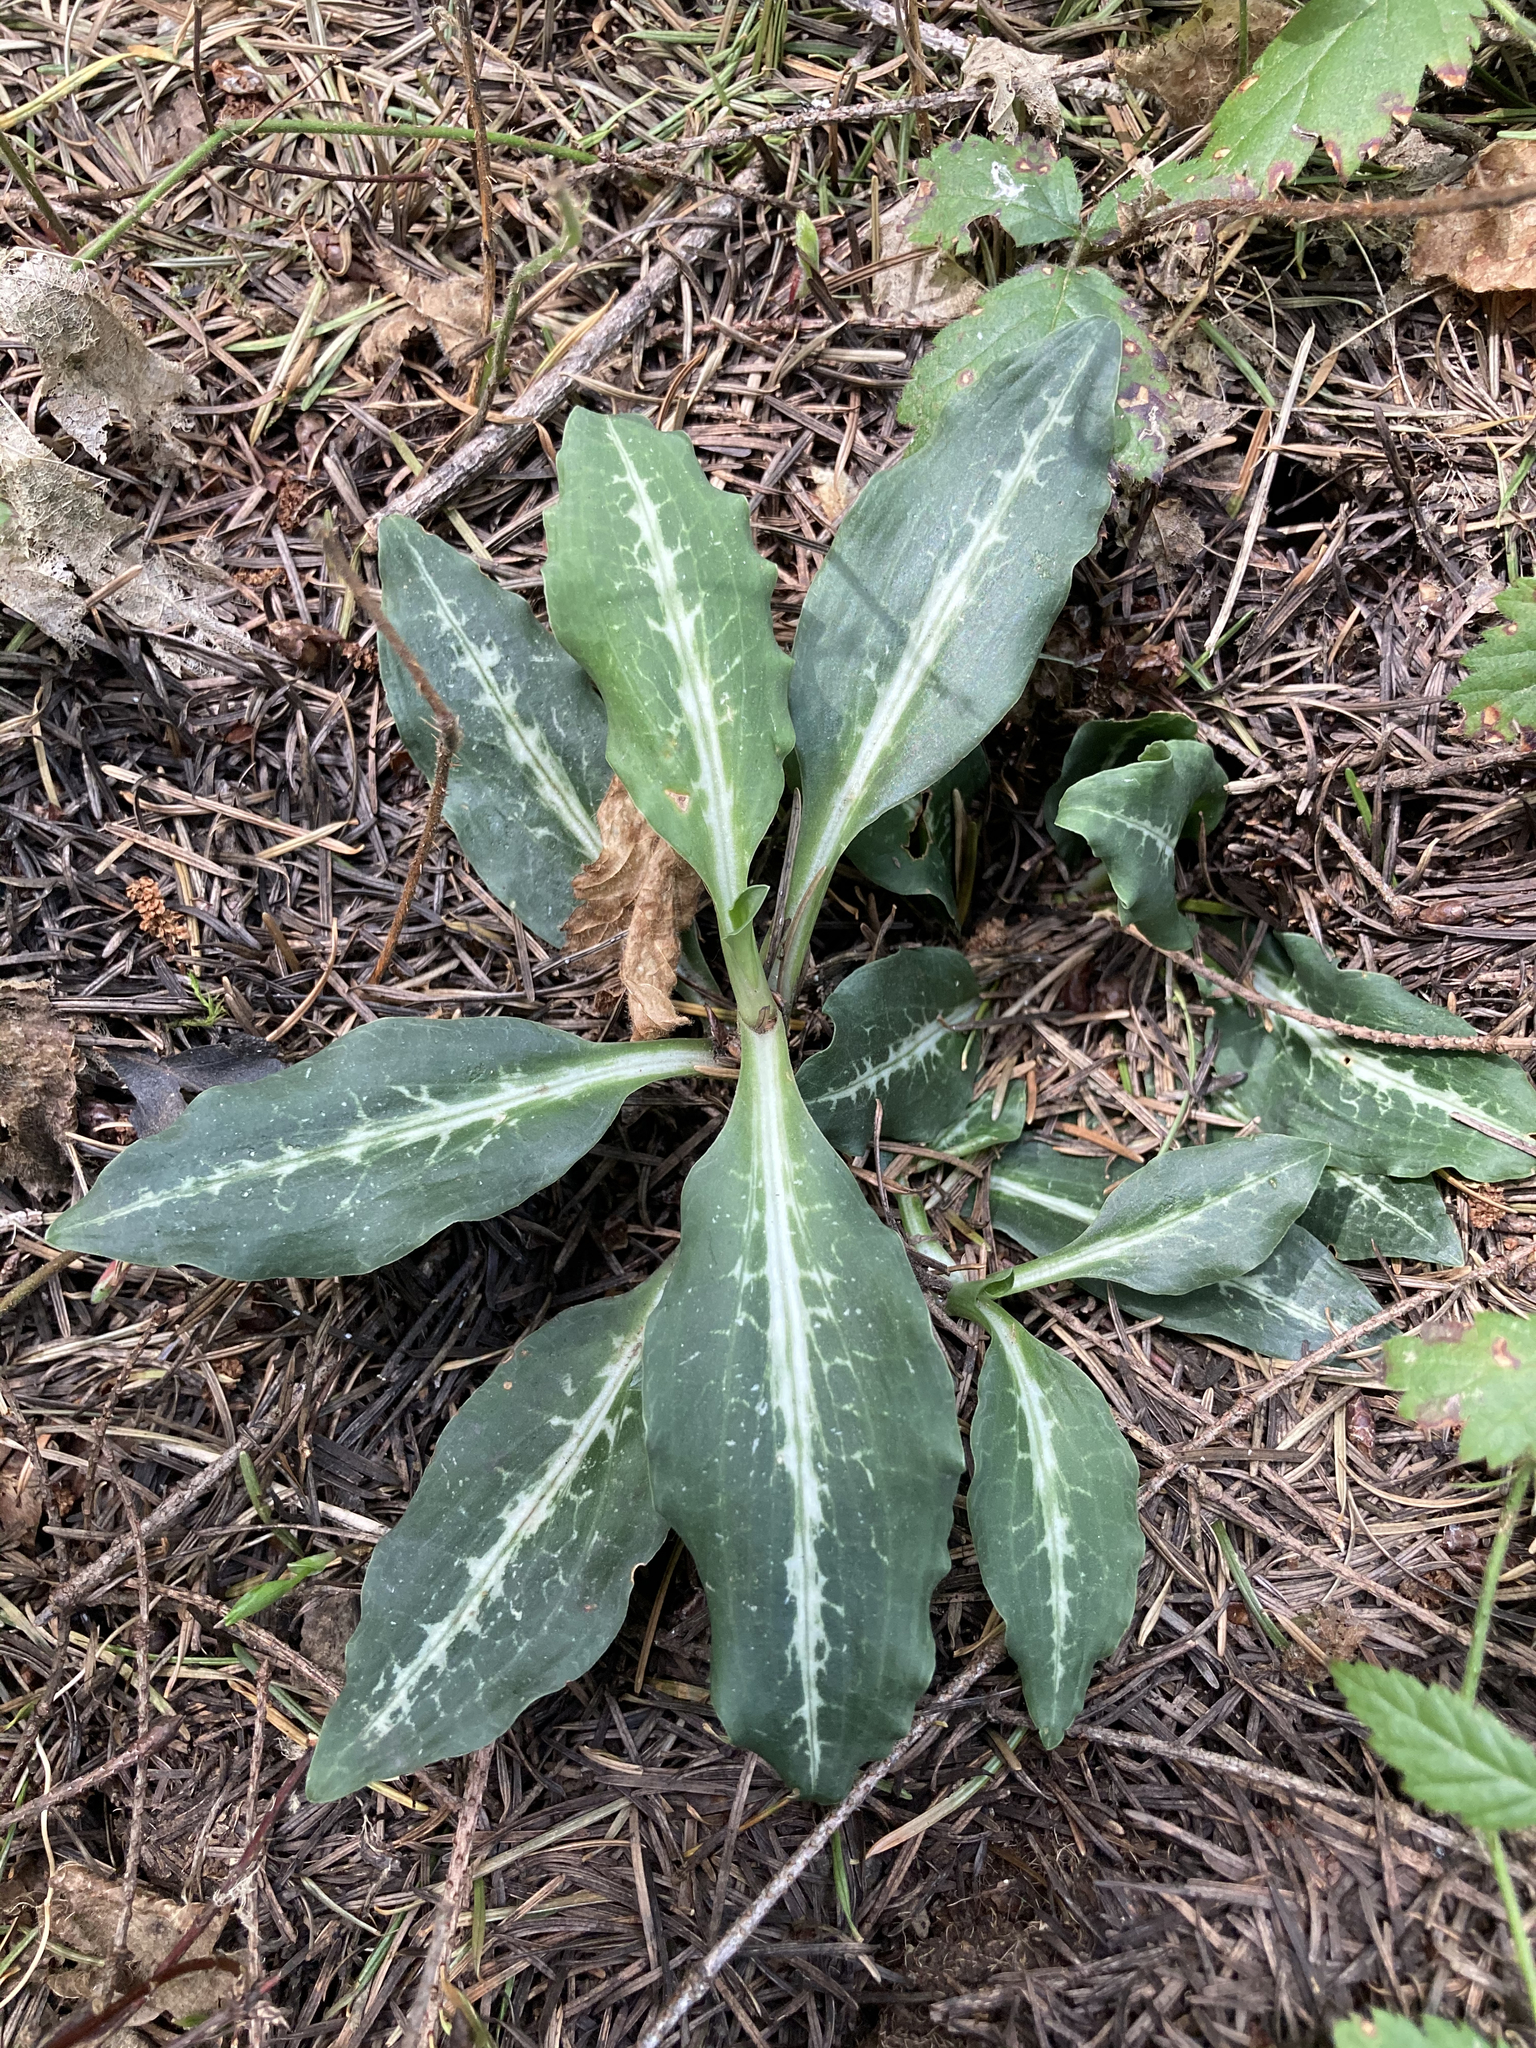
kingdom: Plantae
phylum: Tracheophyta
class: Liliopsida
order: Asparagales
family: Orchidaceae
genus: Goodyera
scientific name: Goodyera oblongifolia
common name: Giant rattlesnake-plantain
